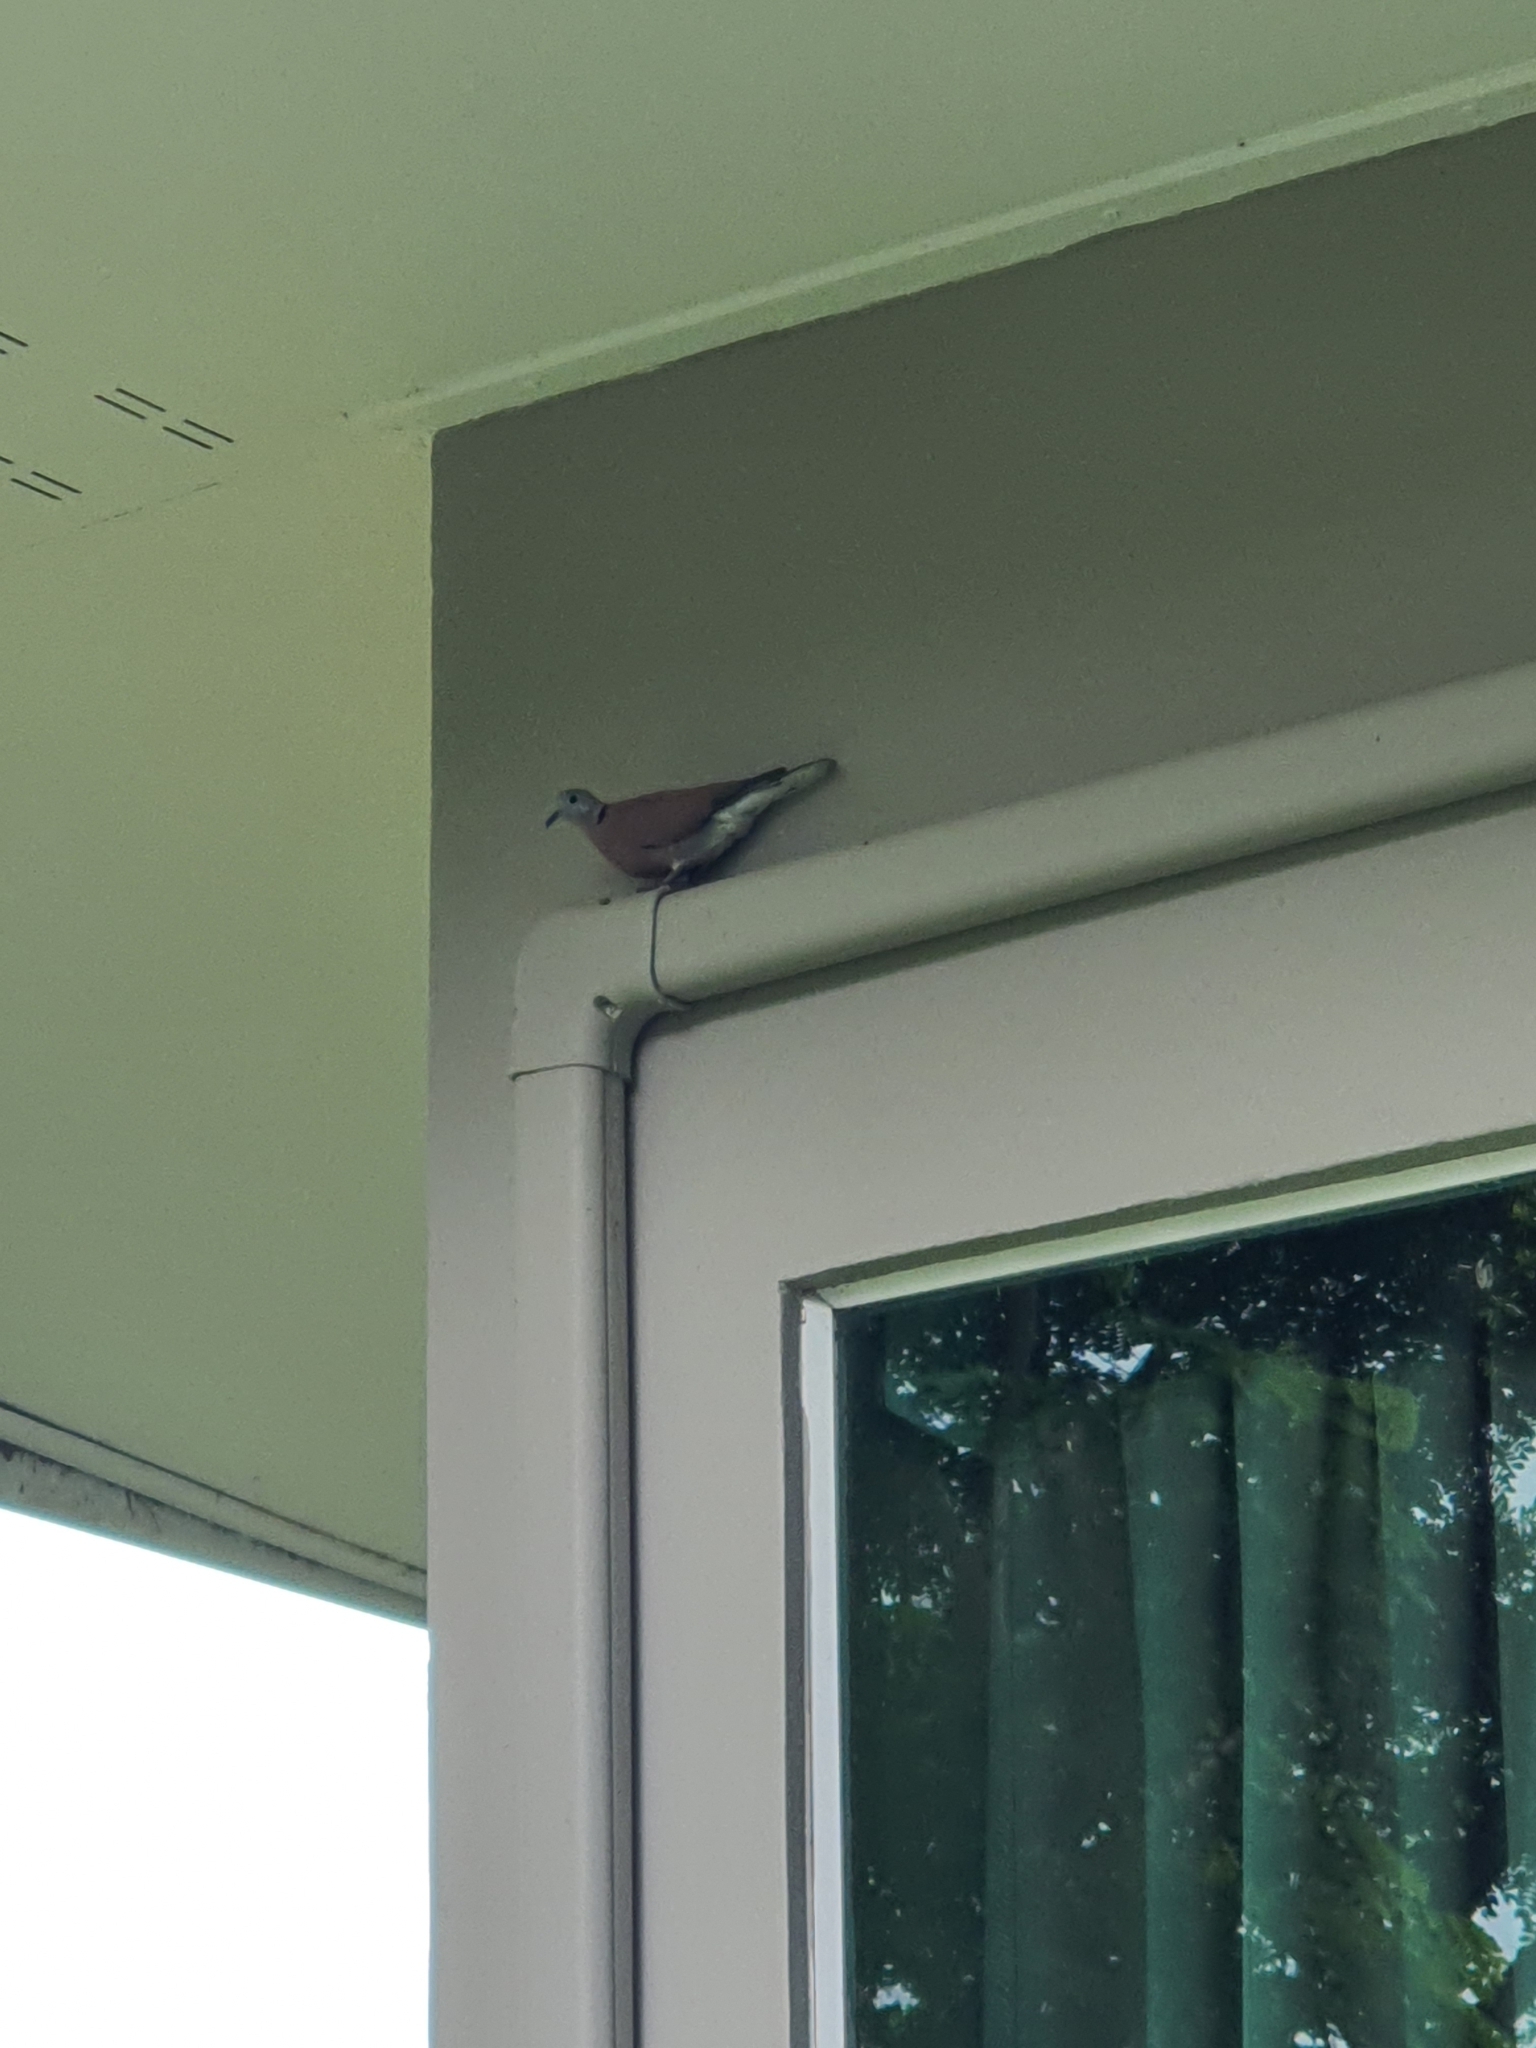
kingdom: Animalia
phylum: Chordata
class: Aves
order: Columbiformes
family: Columbidae
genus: Streptopelia
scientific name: Streptopelia tranquebarica
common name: Red turtle dove
